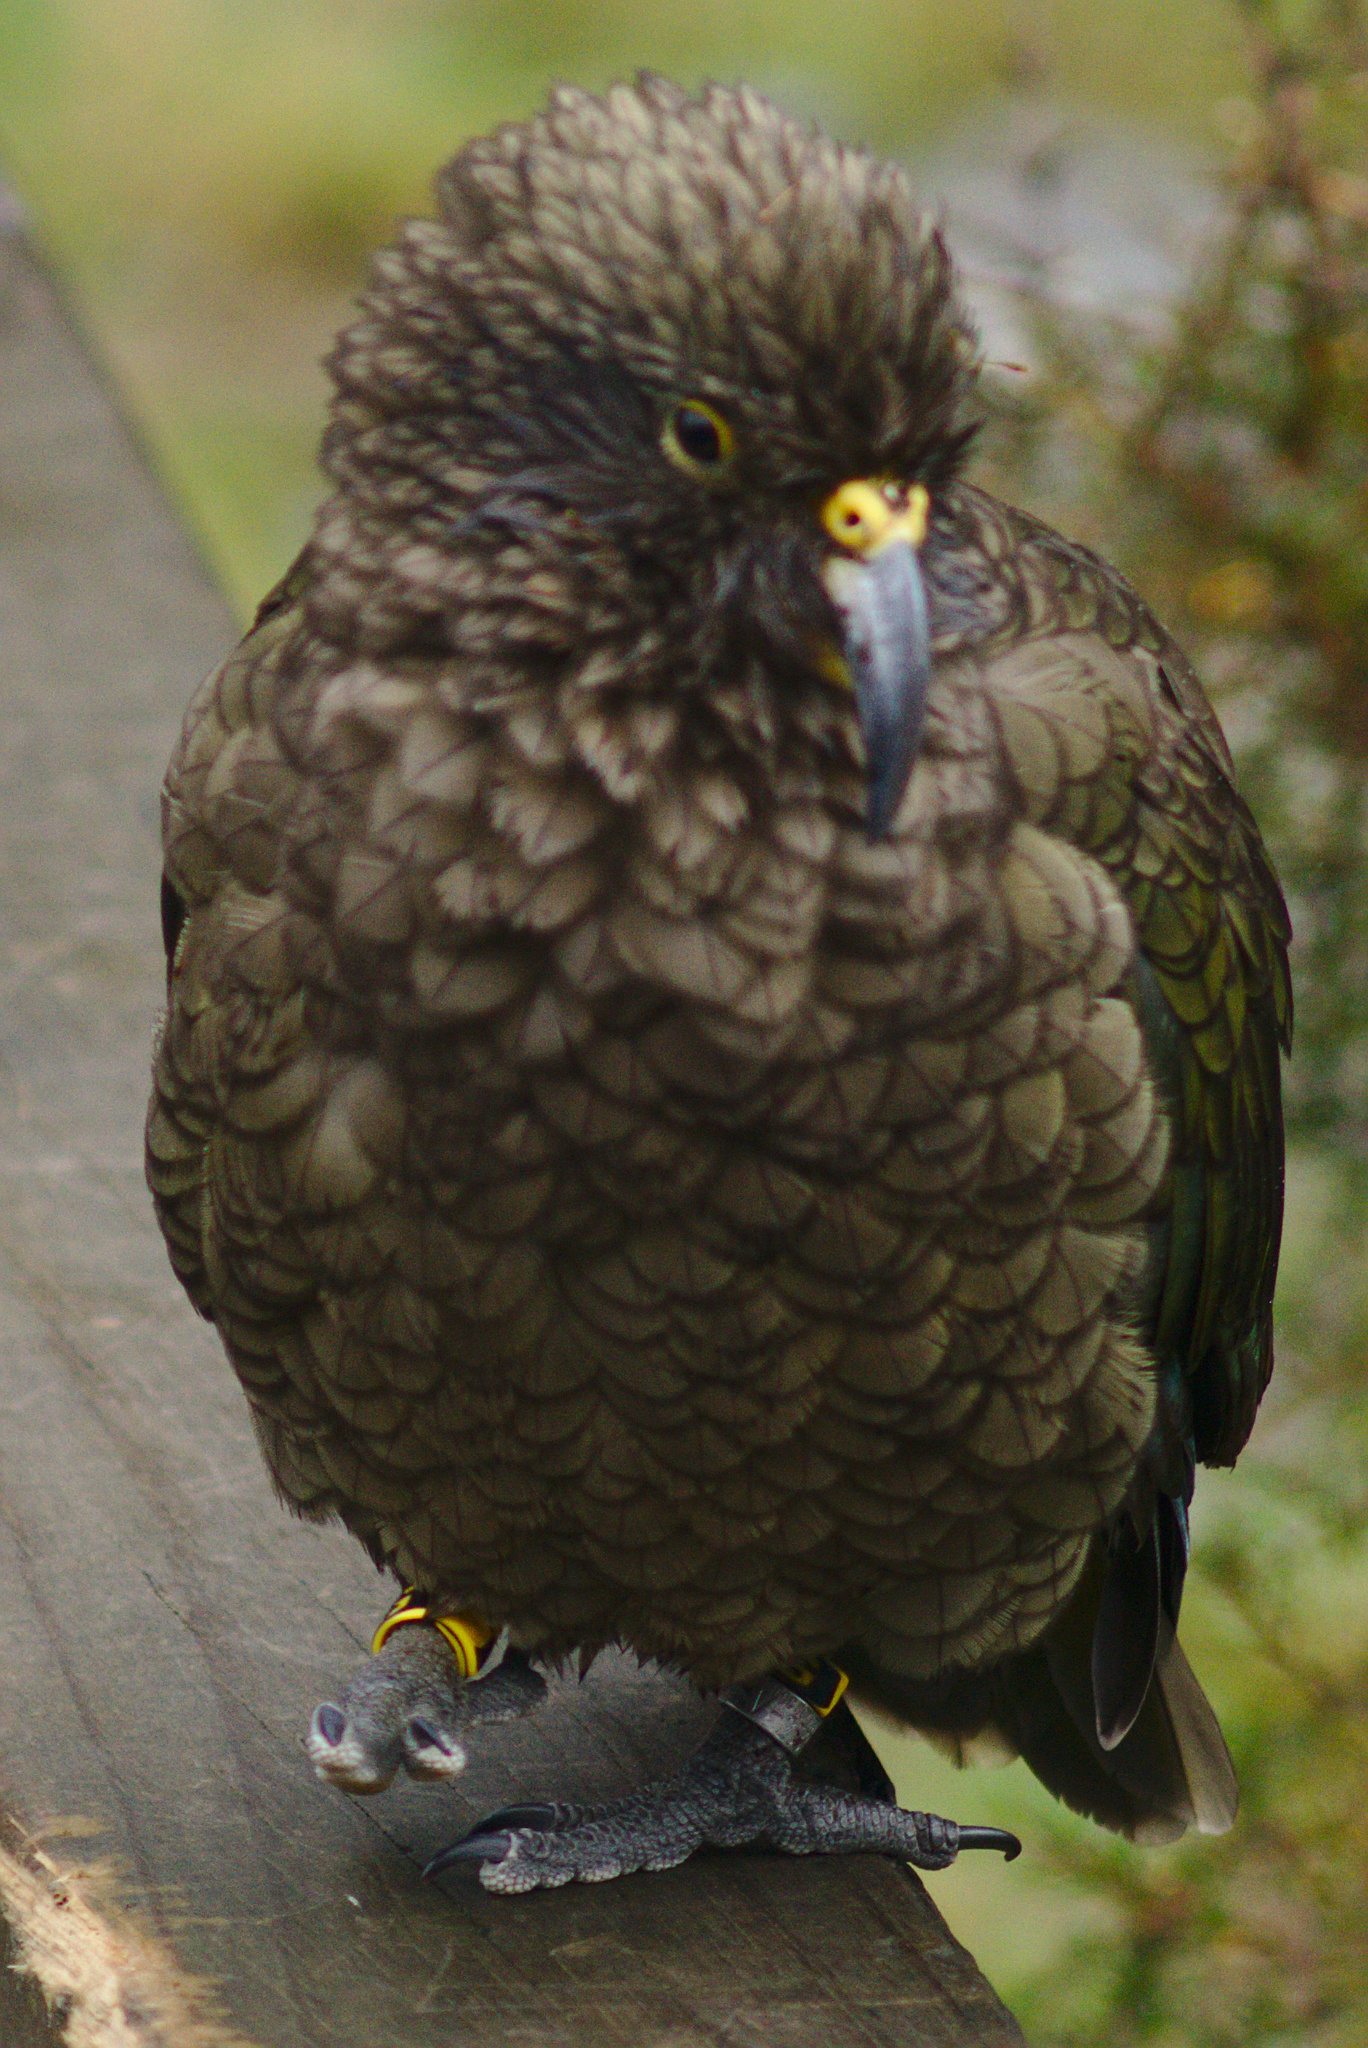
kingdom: Animalia
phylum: Chordata
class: Aves
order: Psittaciformes
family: Psittacidae
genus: Nestor
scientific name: Nestor notabilis
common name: Kea
